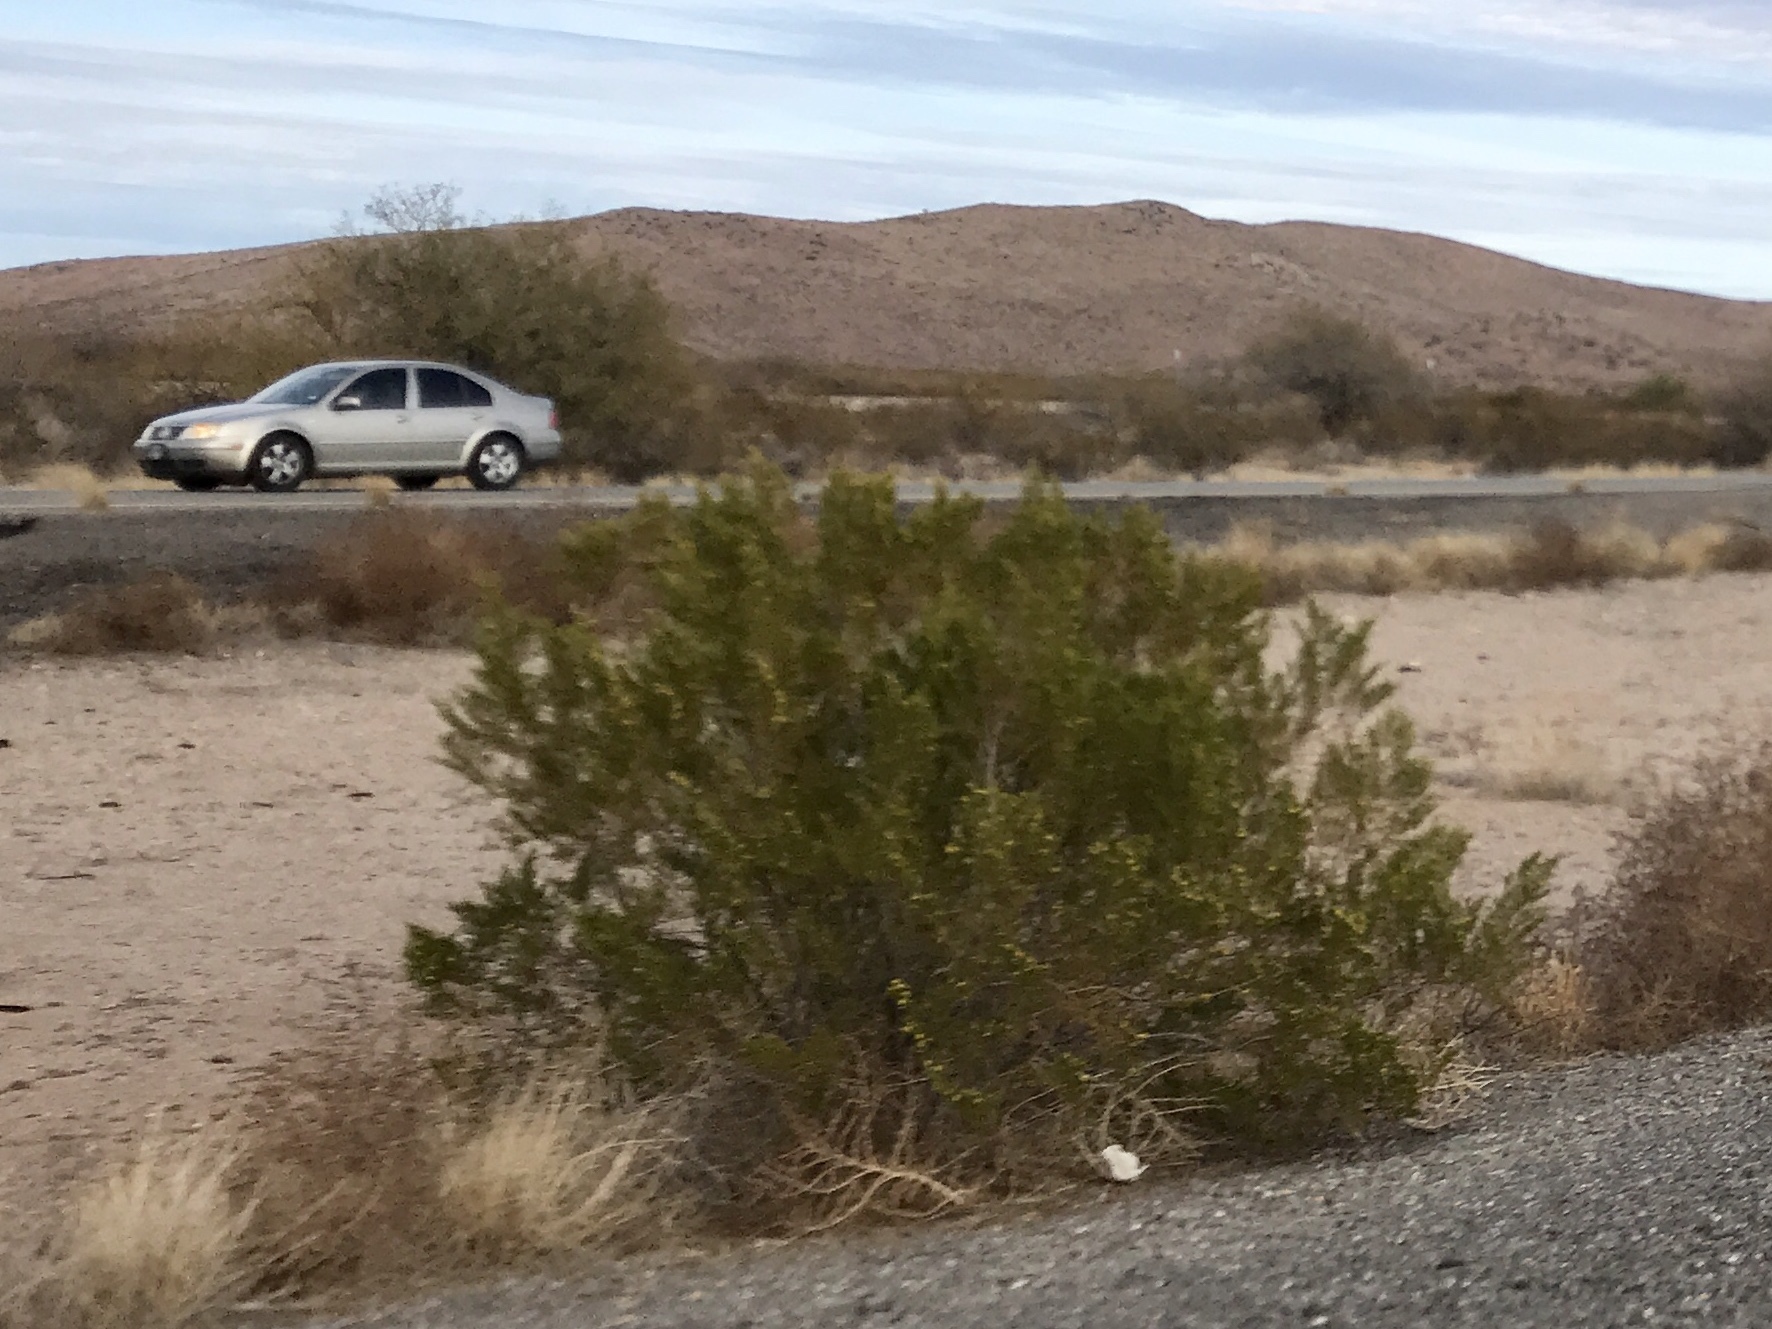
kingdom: Plantae
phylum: Tracheophyta
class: Magnoliopsida
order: Zygophyllales
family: Zygophyllaceae
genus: Larrea
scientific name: Larrea tridentata
